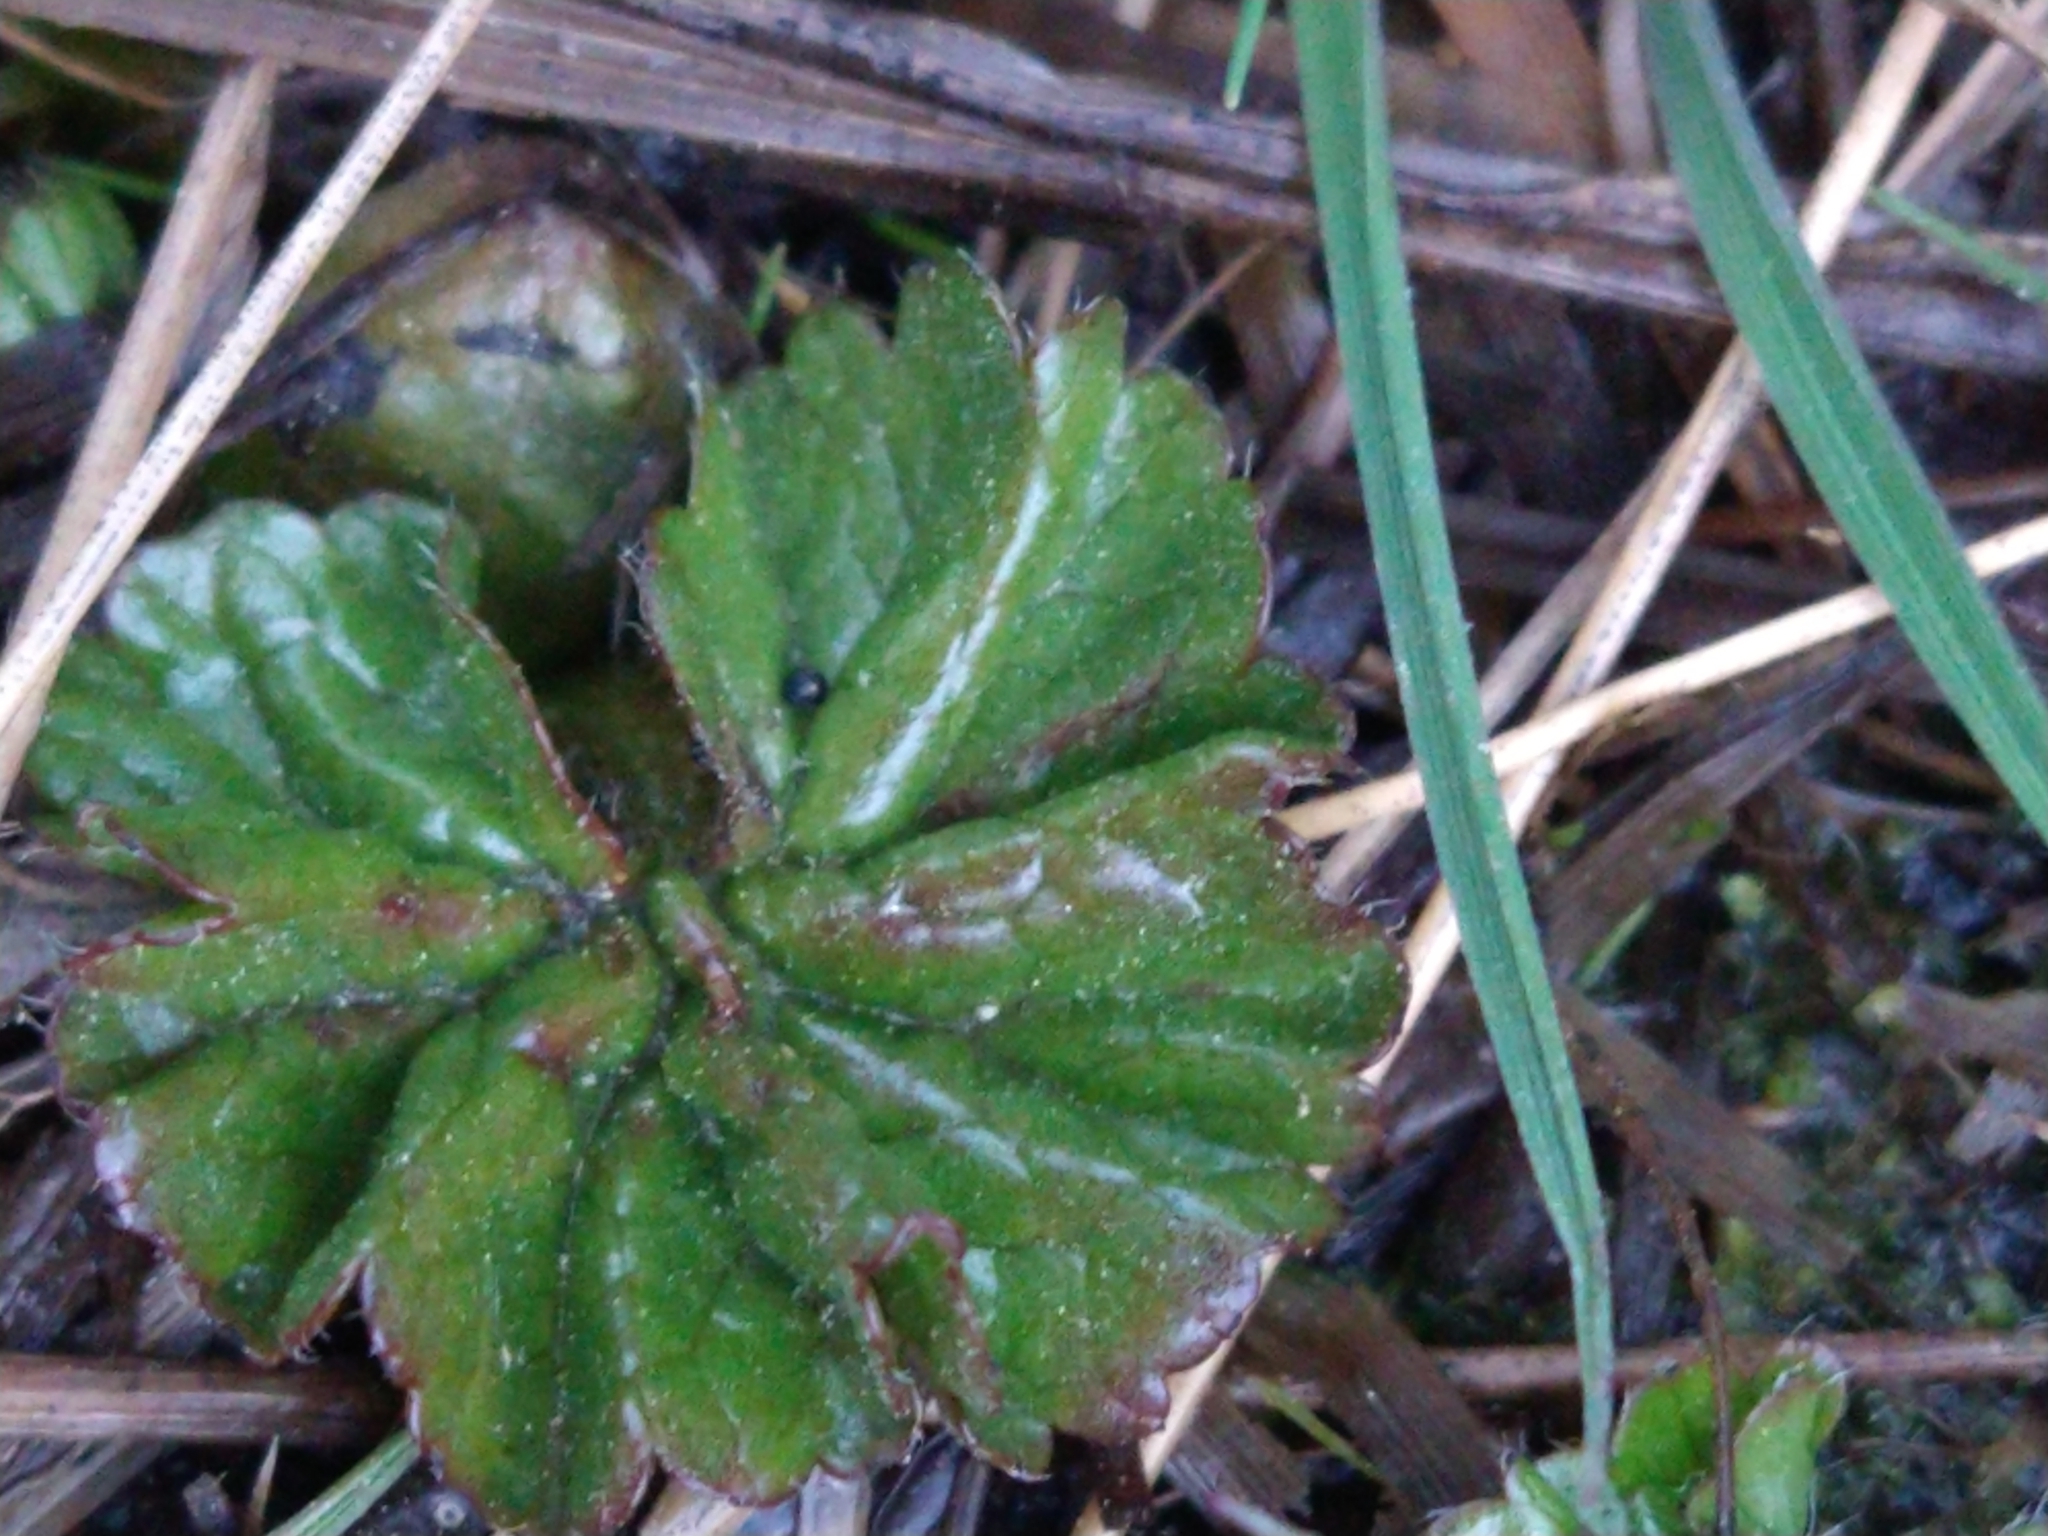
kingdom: Plantae
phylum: Tracheophyta
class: Magnoliopsida
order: Gunnerales
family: Gunneraceae
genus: Gunnera
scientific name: Gunnera magellanica
